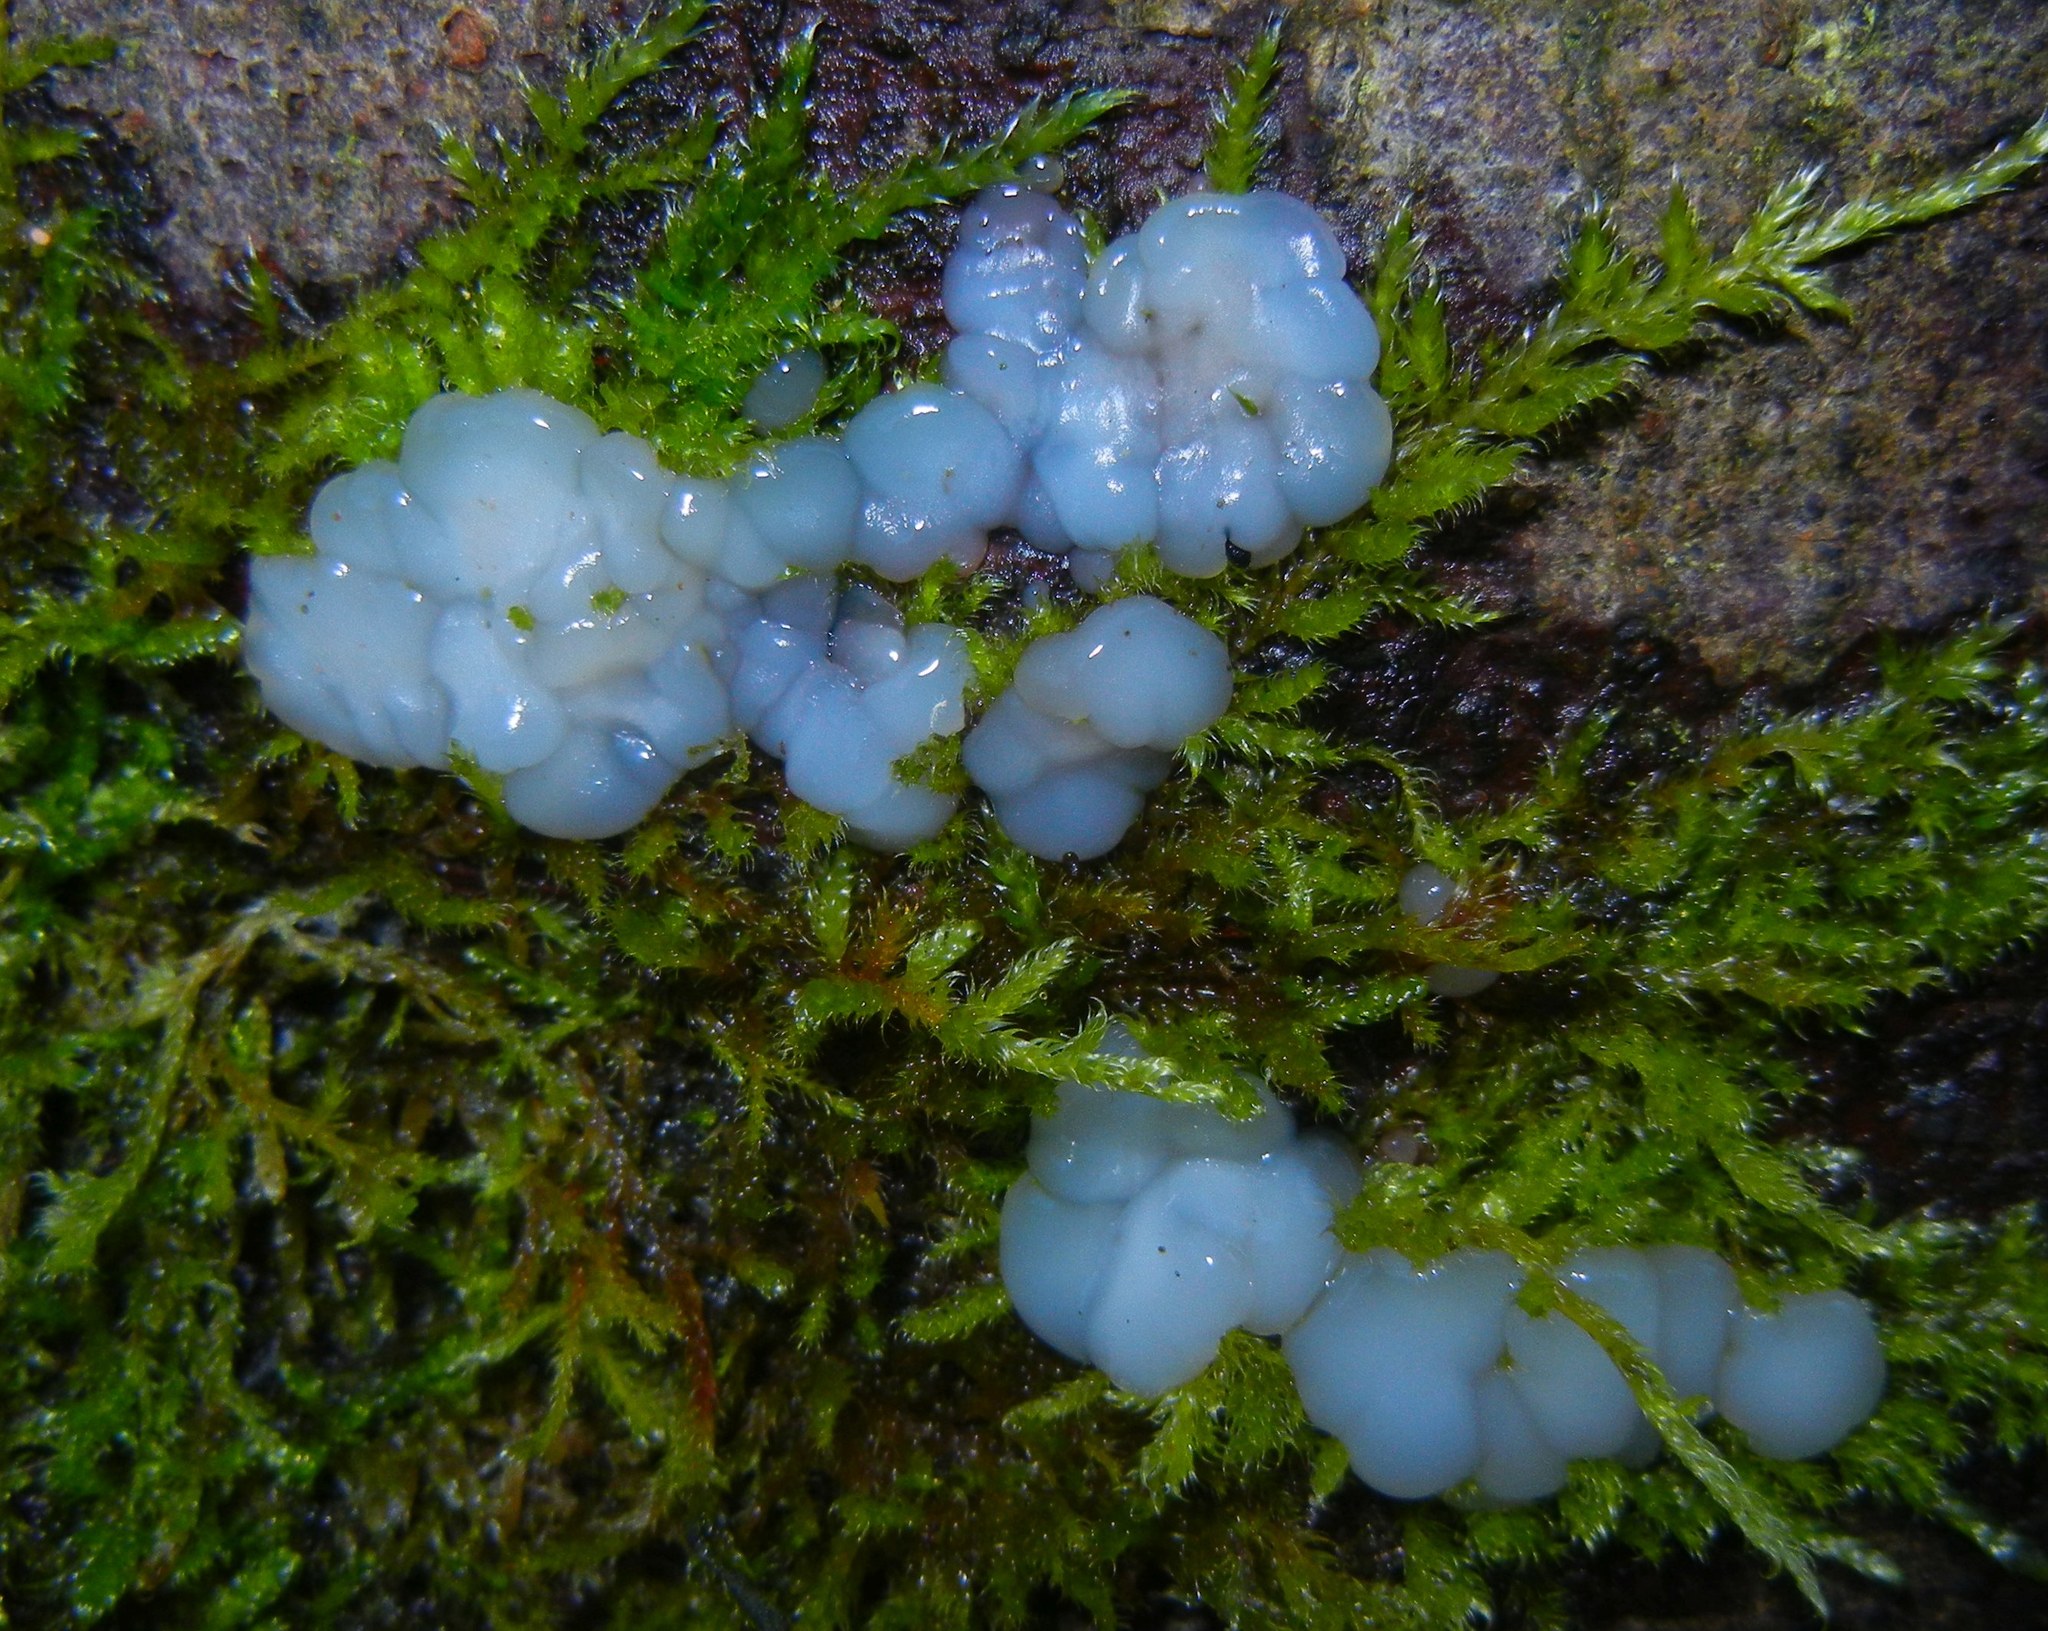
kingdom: Fungi
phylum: Basidiomycota
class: Agaricomycetes
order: Auriculariales
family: Auriculariaceae
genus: Exidia
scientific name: Exidia thuretiana
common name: White brain
